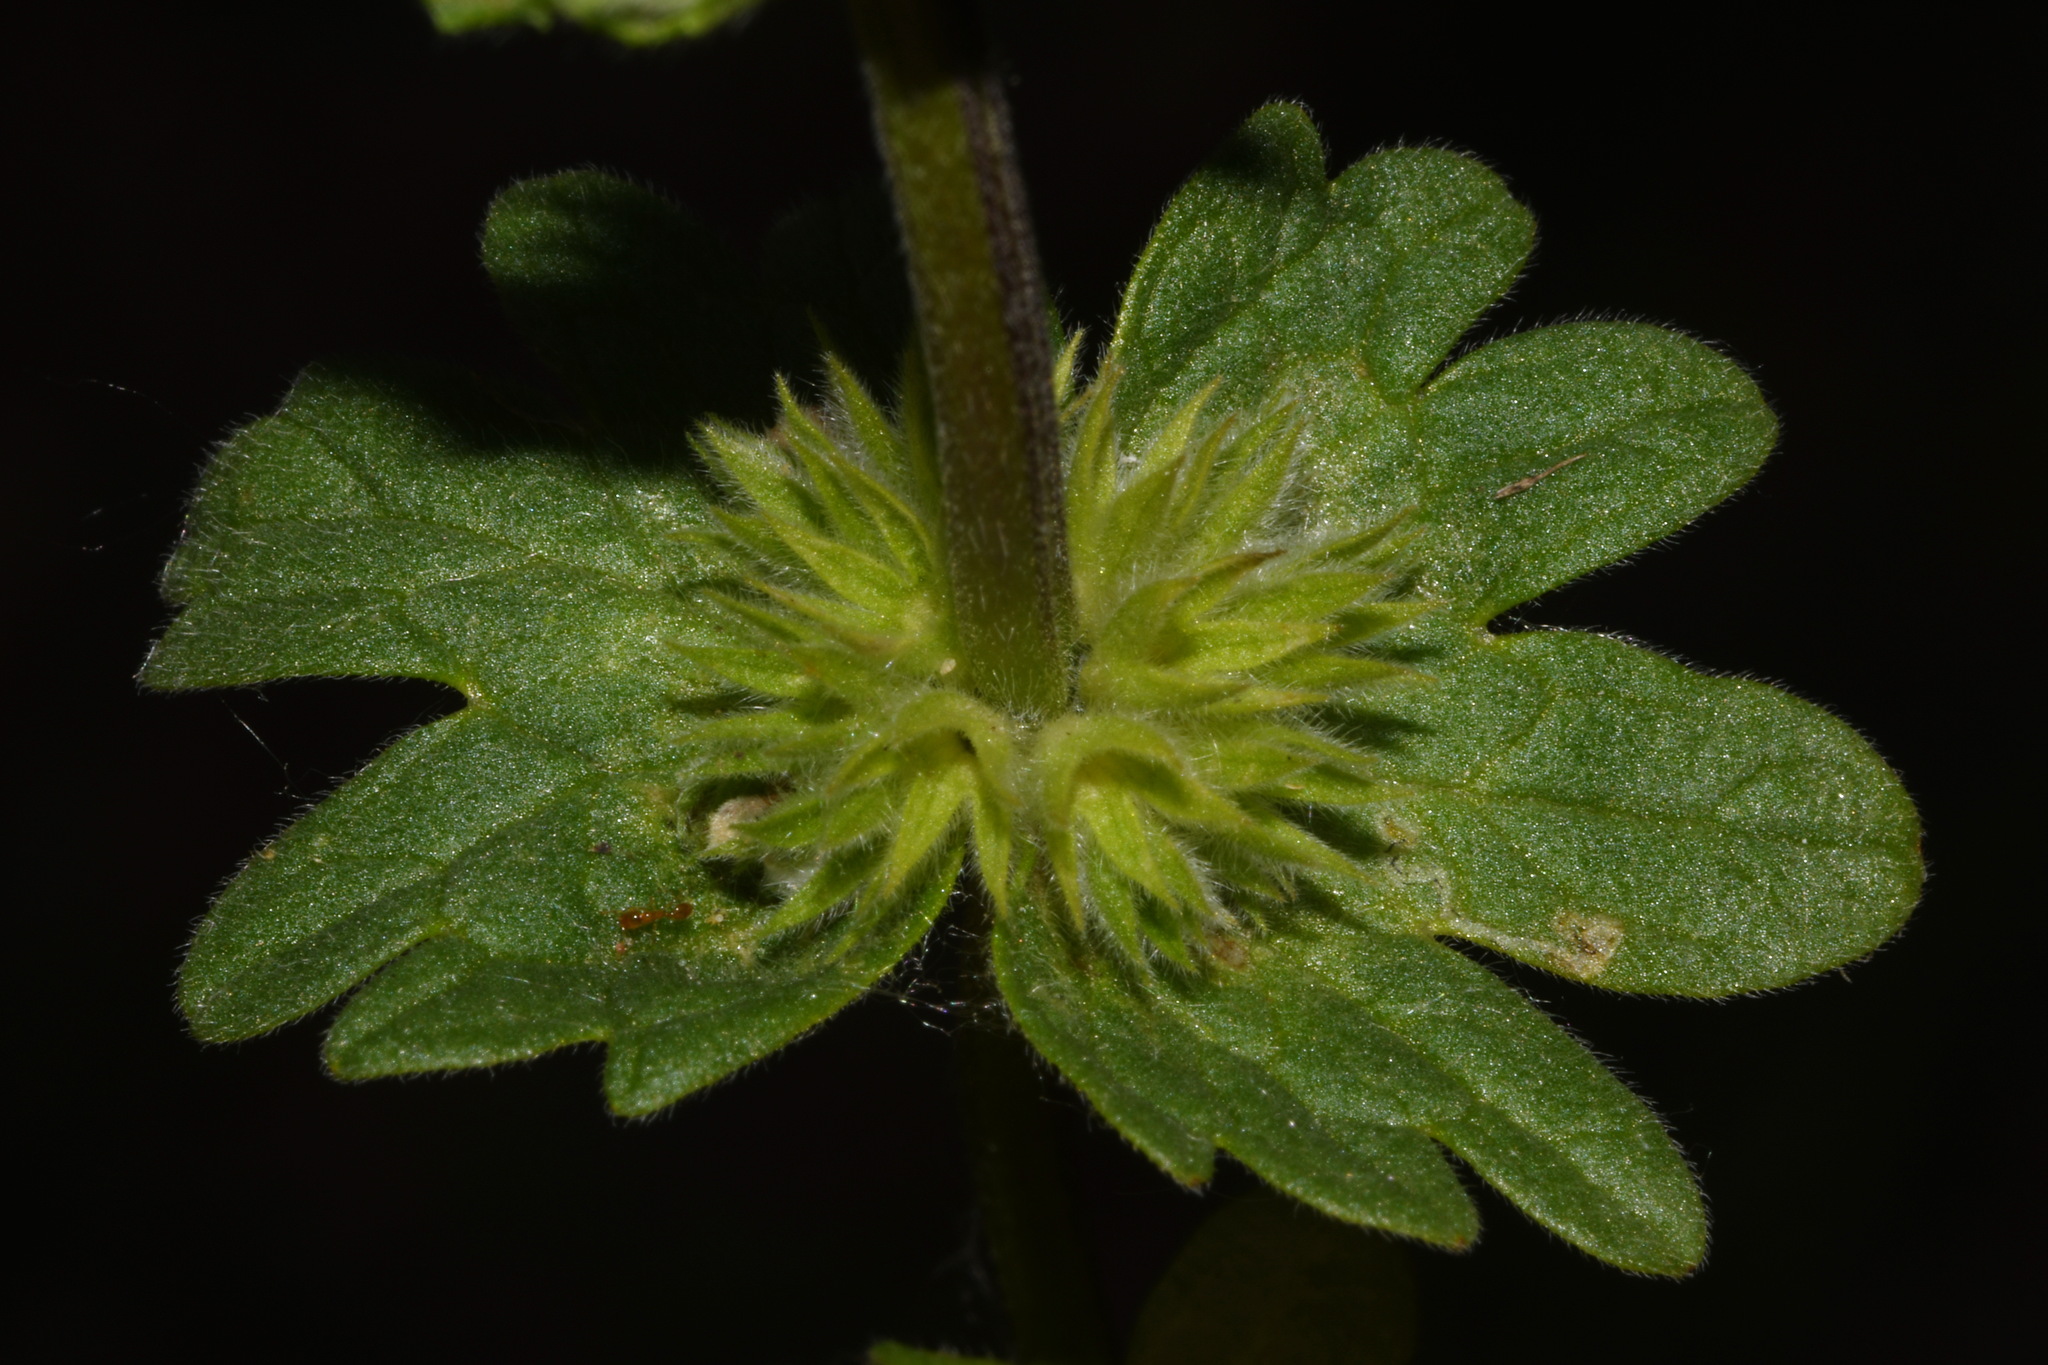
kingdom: Plantae
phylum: Tracheophyta
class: Magnoliopsida
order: Lamiales
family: Lamiaceae
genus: Lamium
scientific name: Lamium amplexicaule
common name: Henbit dead-nettle
